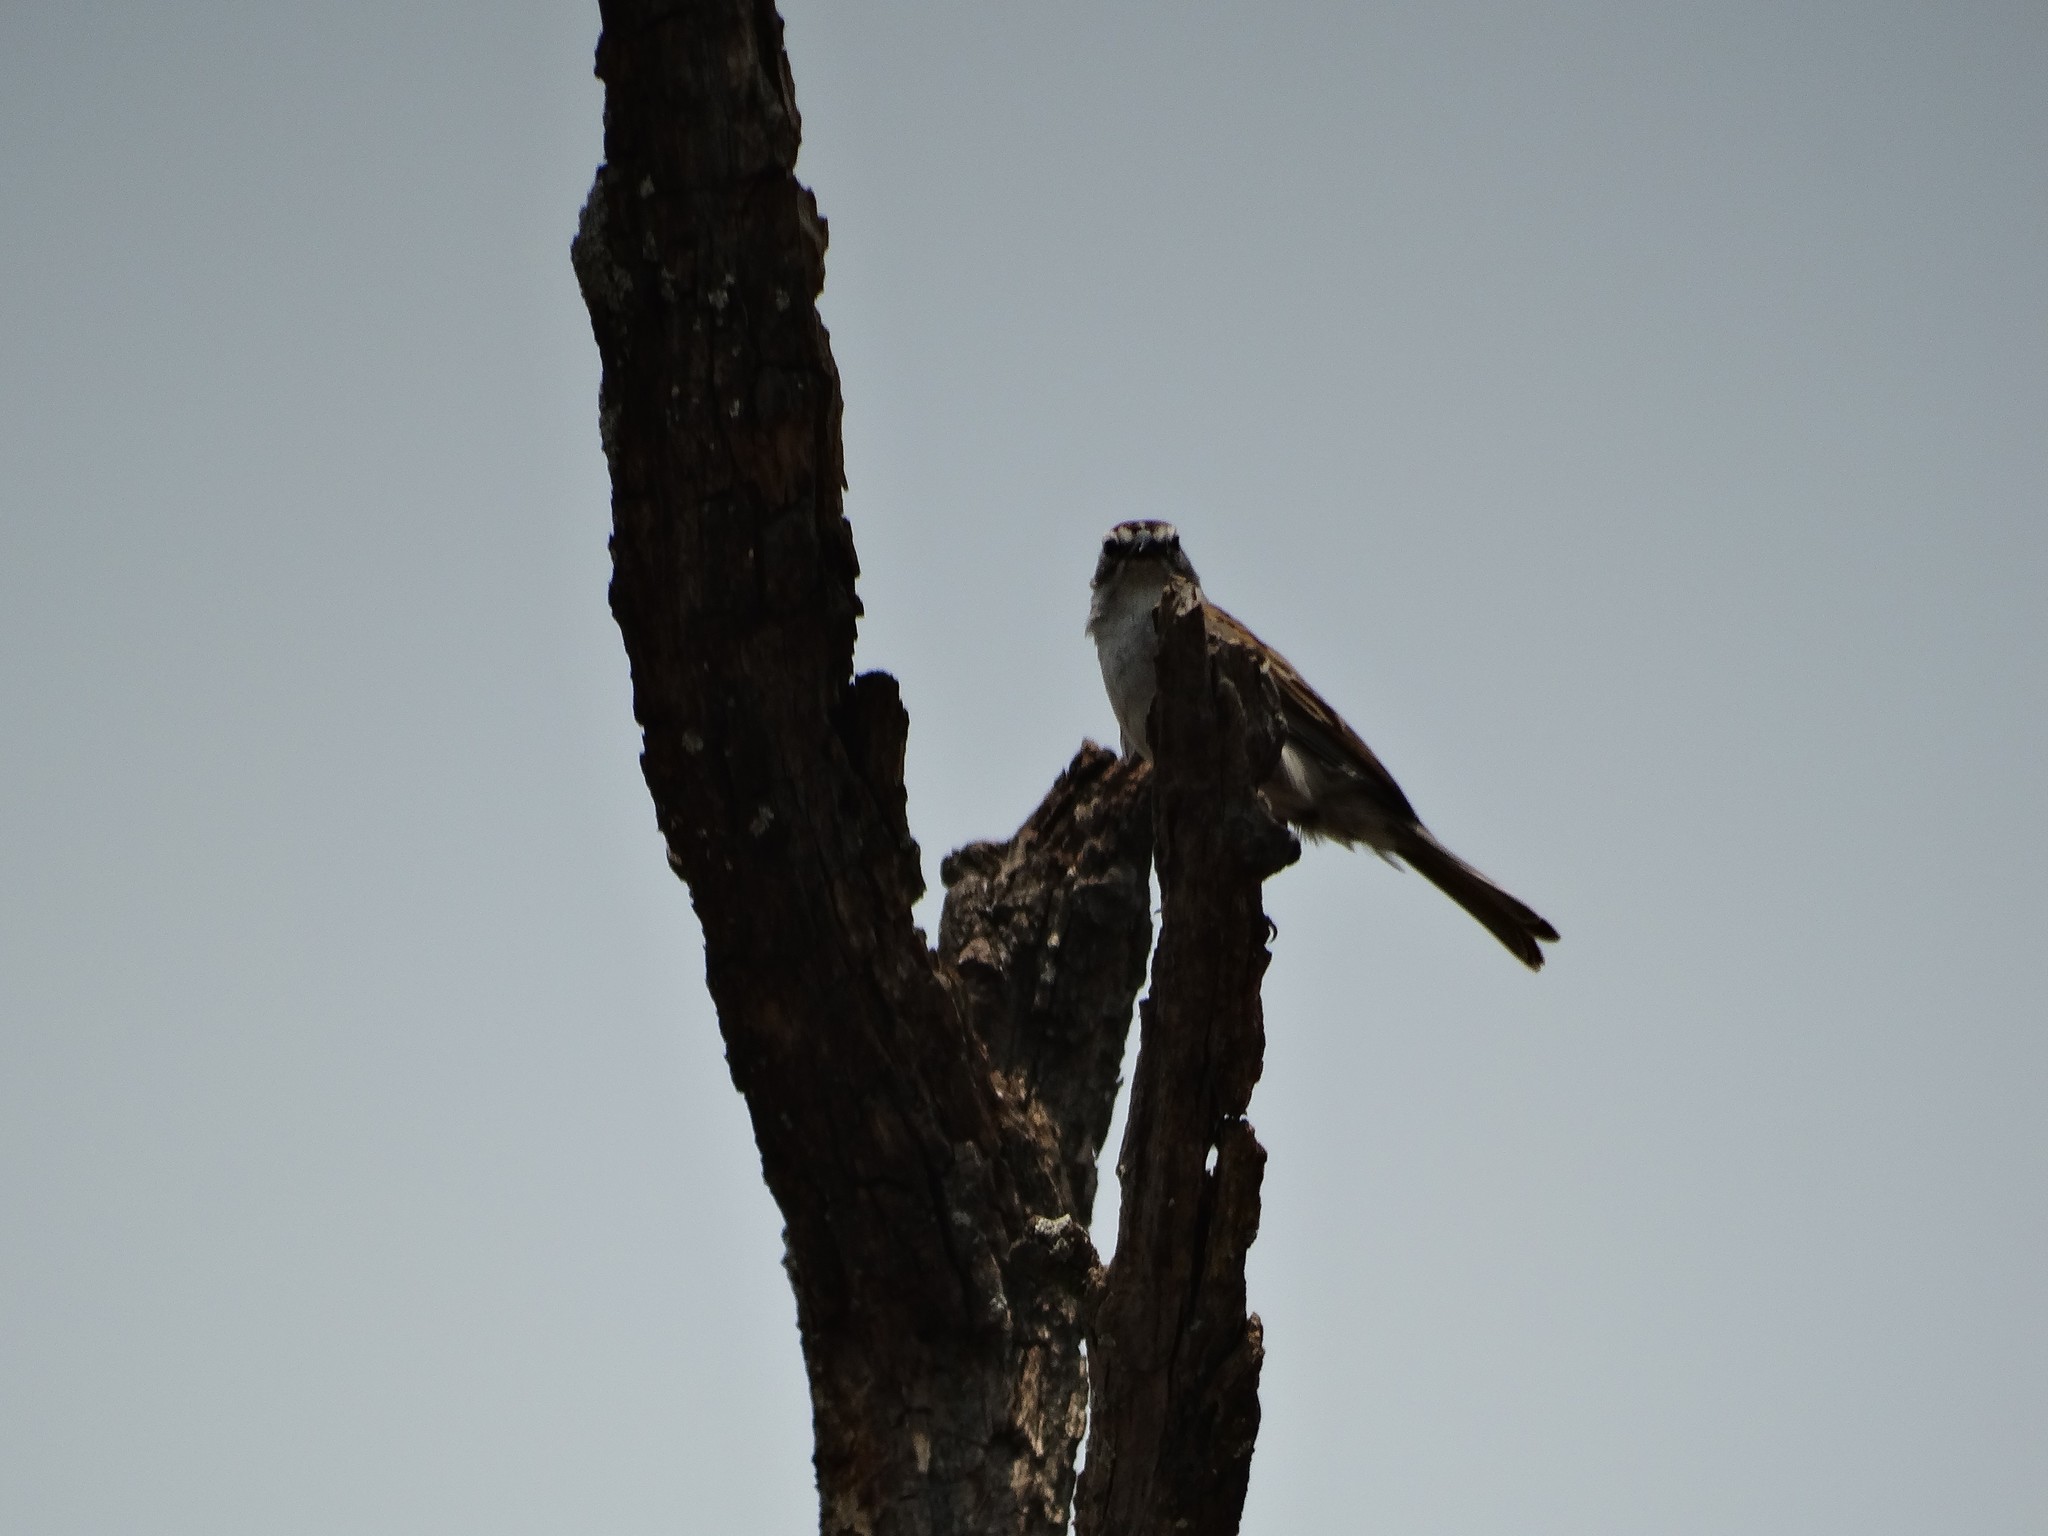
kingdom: Animalia
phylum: Chordata
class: Aves
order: Passeriformes
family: Passerellidae
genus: Spizella
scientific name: Spizella passerina
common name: Chipping sparrow
